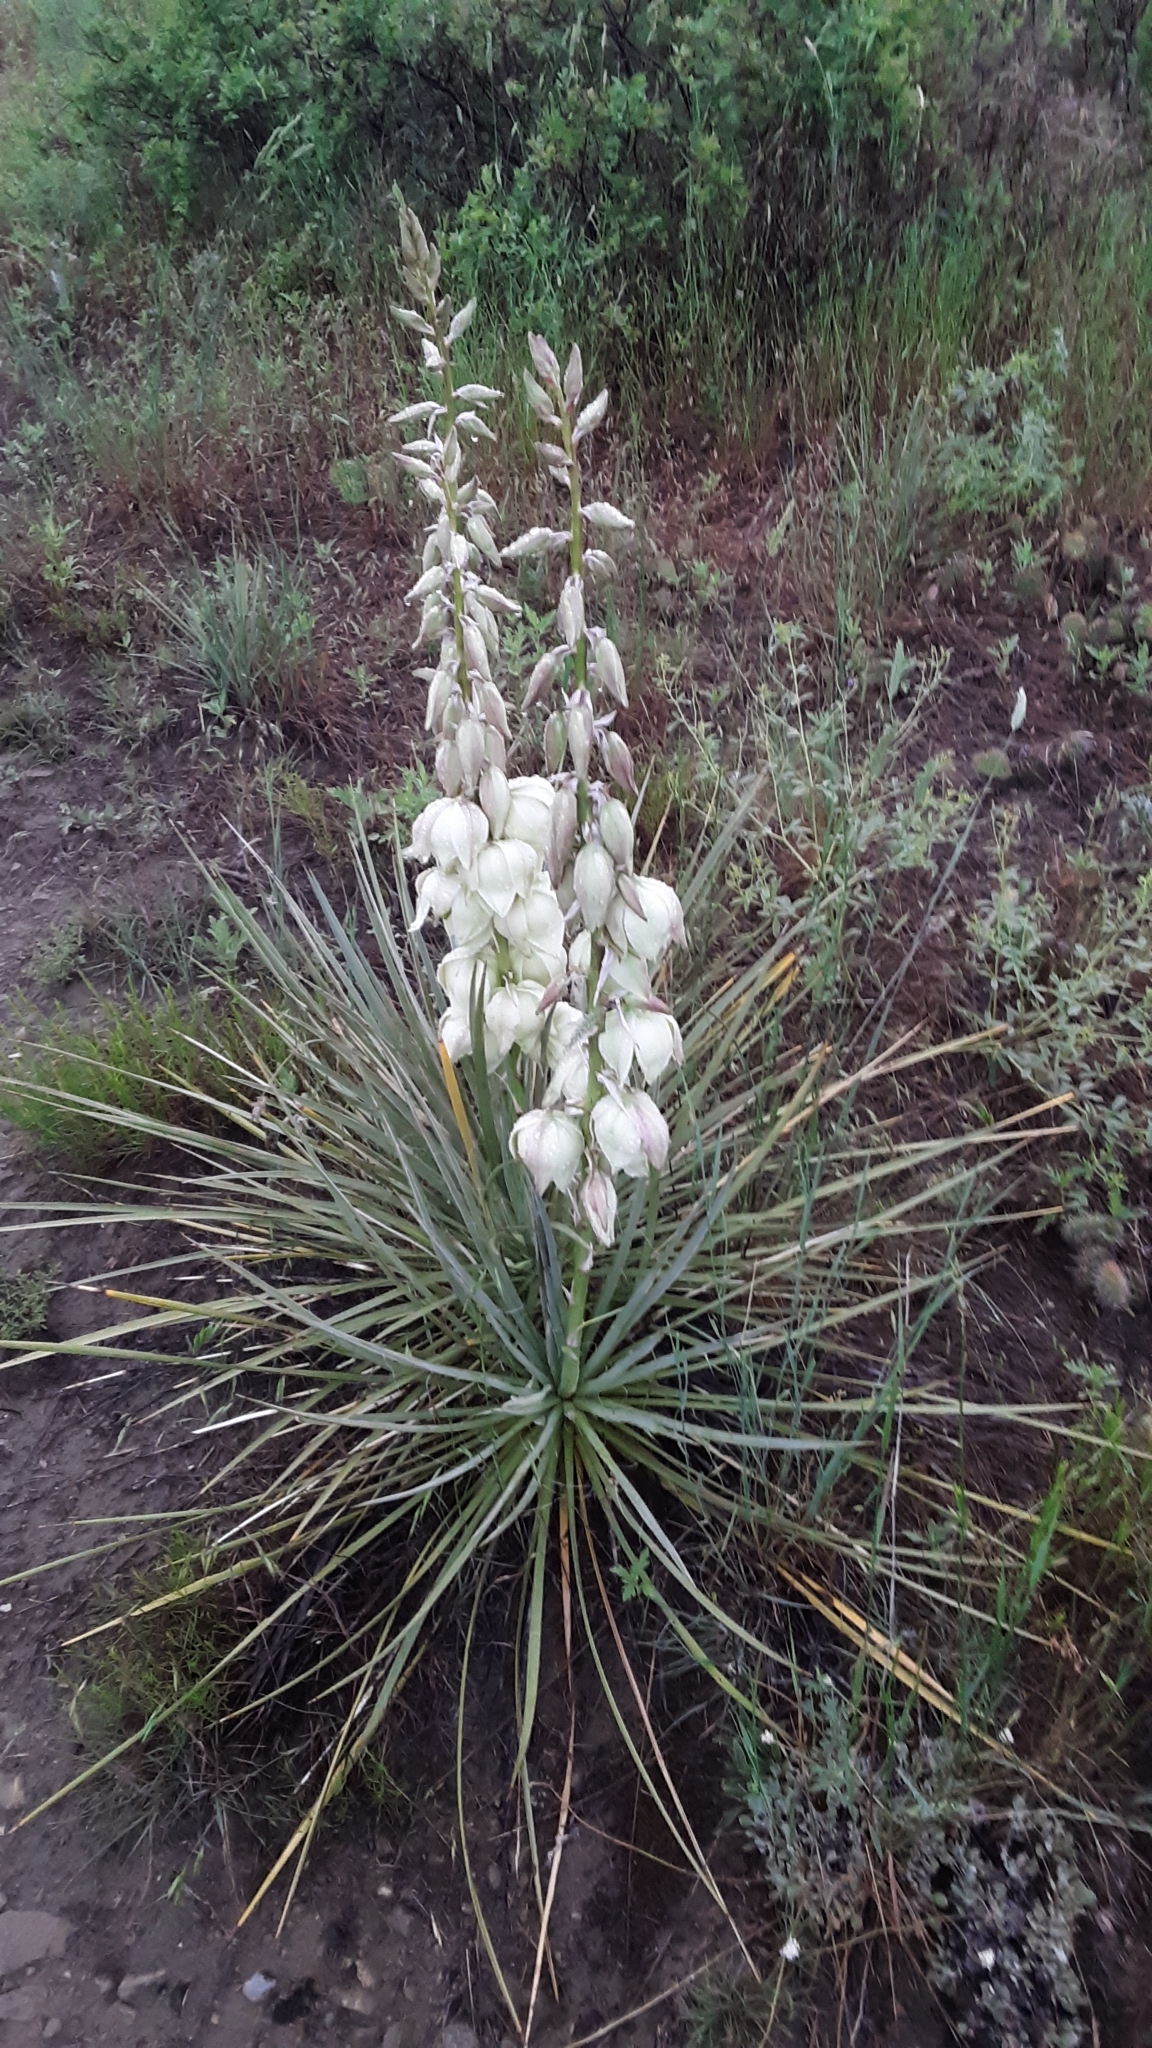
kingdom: Plantae
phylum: Tracheophyta
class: Liliopsida
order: Asparagales
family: Asparagaceae
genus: Yucca
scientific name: Yucca glauca
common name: Great plains yucca
